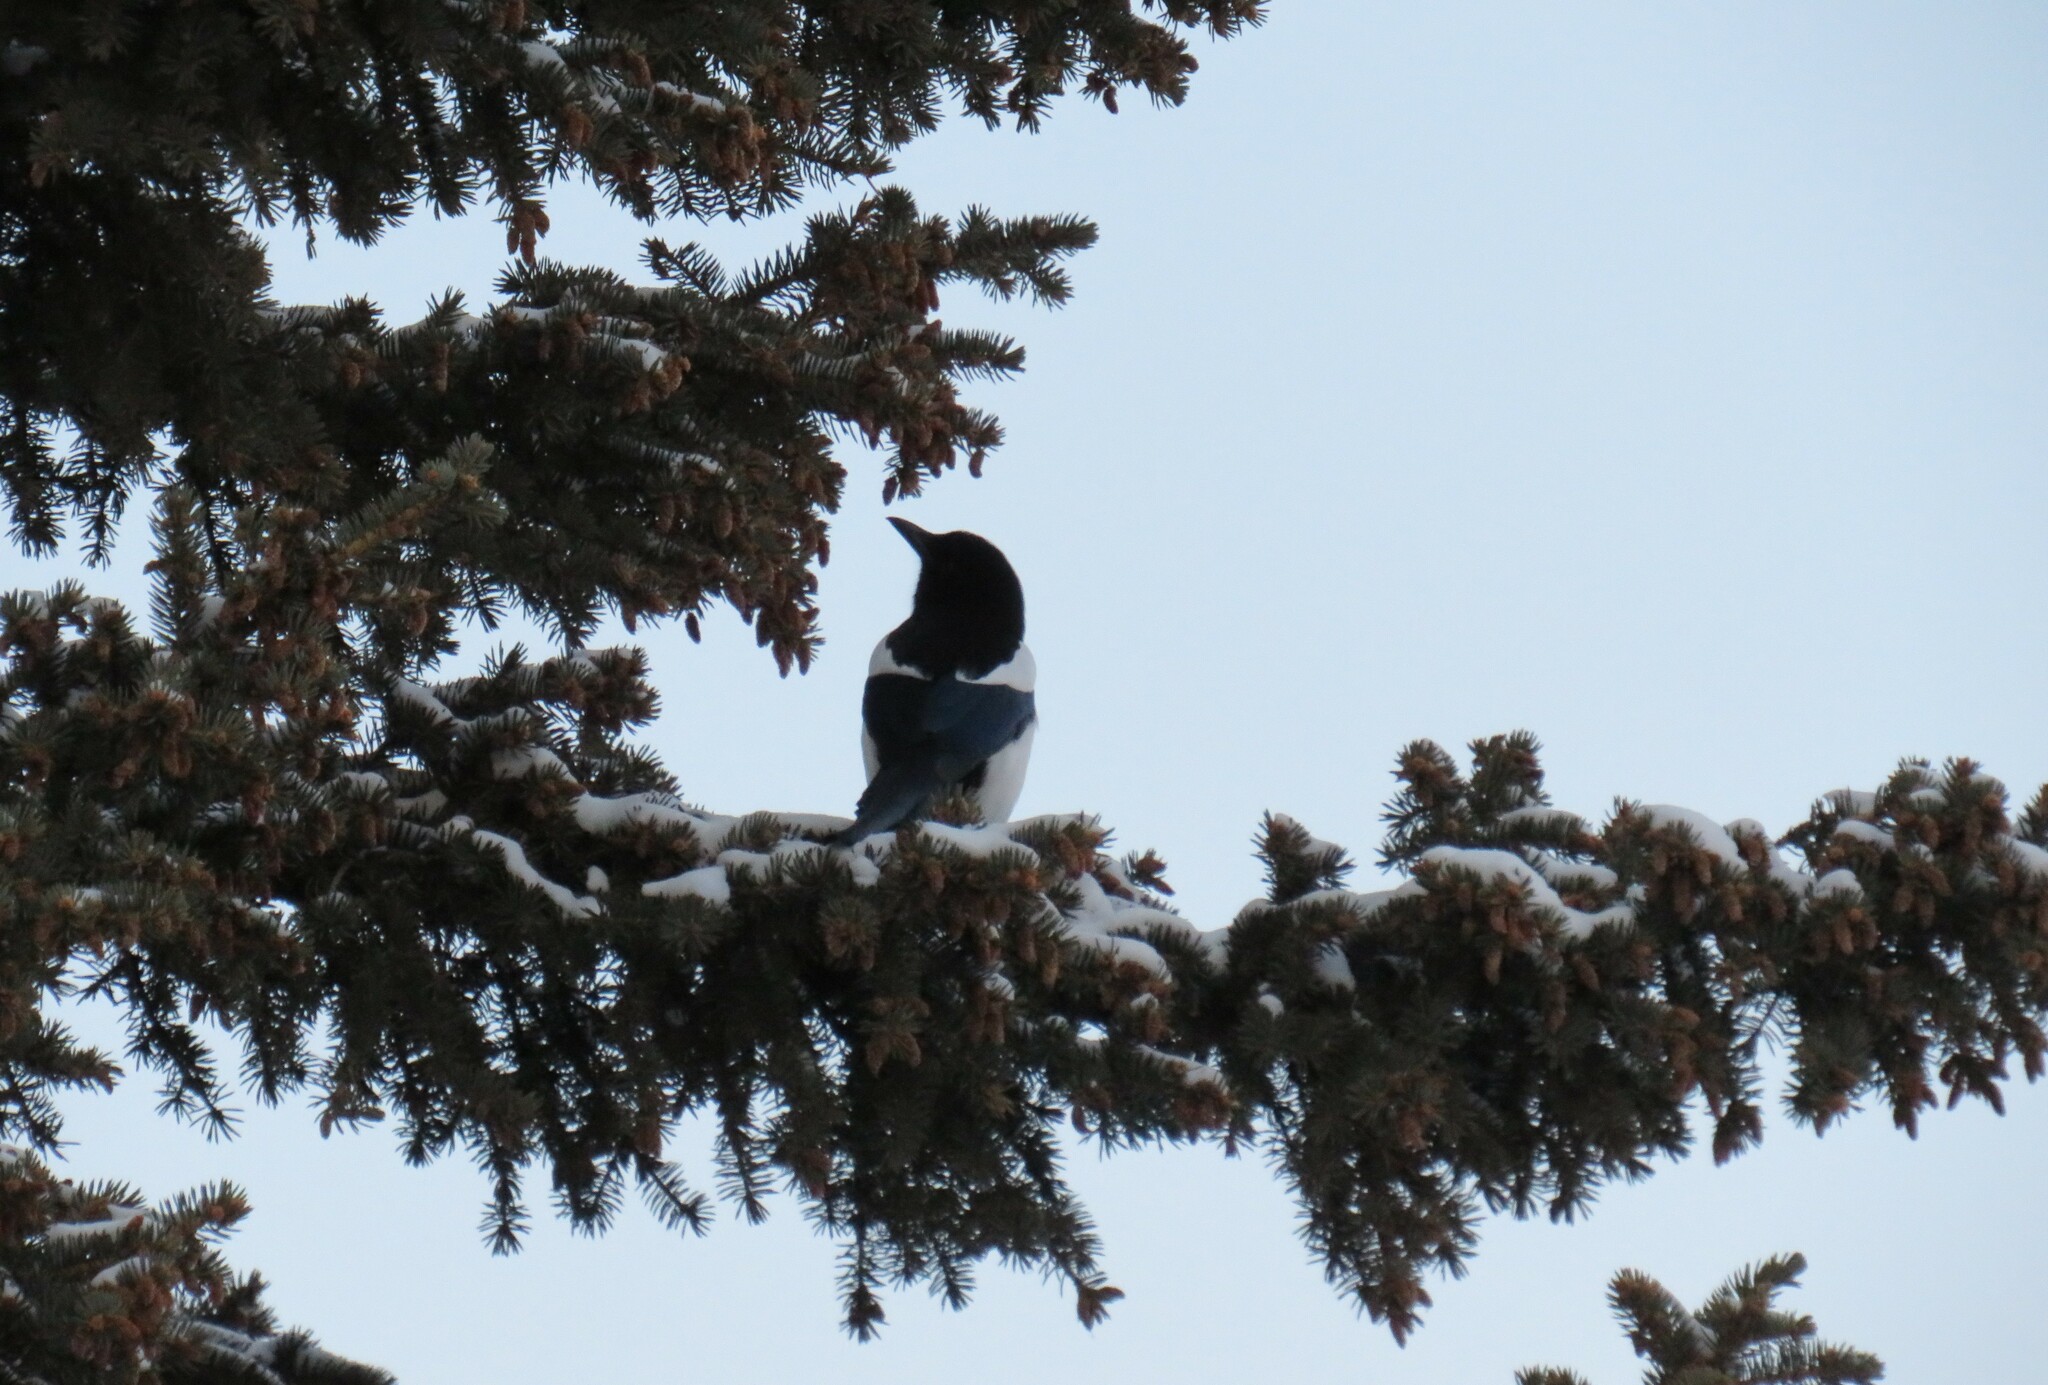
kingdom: Animalia
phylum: Chordata
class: Aves
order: Passeriformes
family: Corvidae
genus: Pica
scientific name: Pica hudsonia
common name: Black-billed magpie
